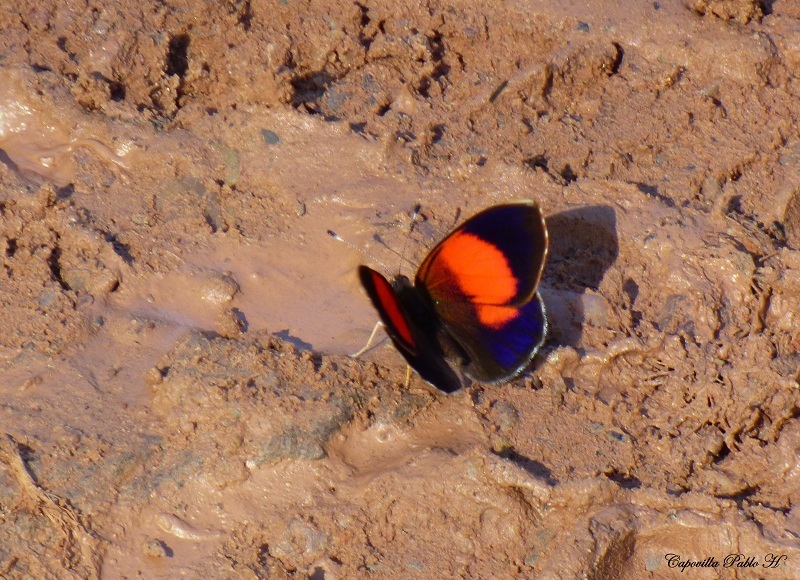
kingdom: Animalia
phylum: Arthropoda
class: Insecta
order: Lepidoptera
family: Nymphalidae
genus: Haematera
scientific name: Haematera pyrame
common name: Blind eighty-eight
